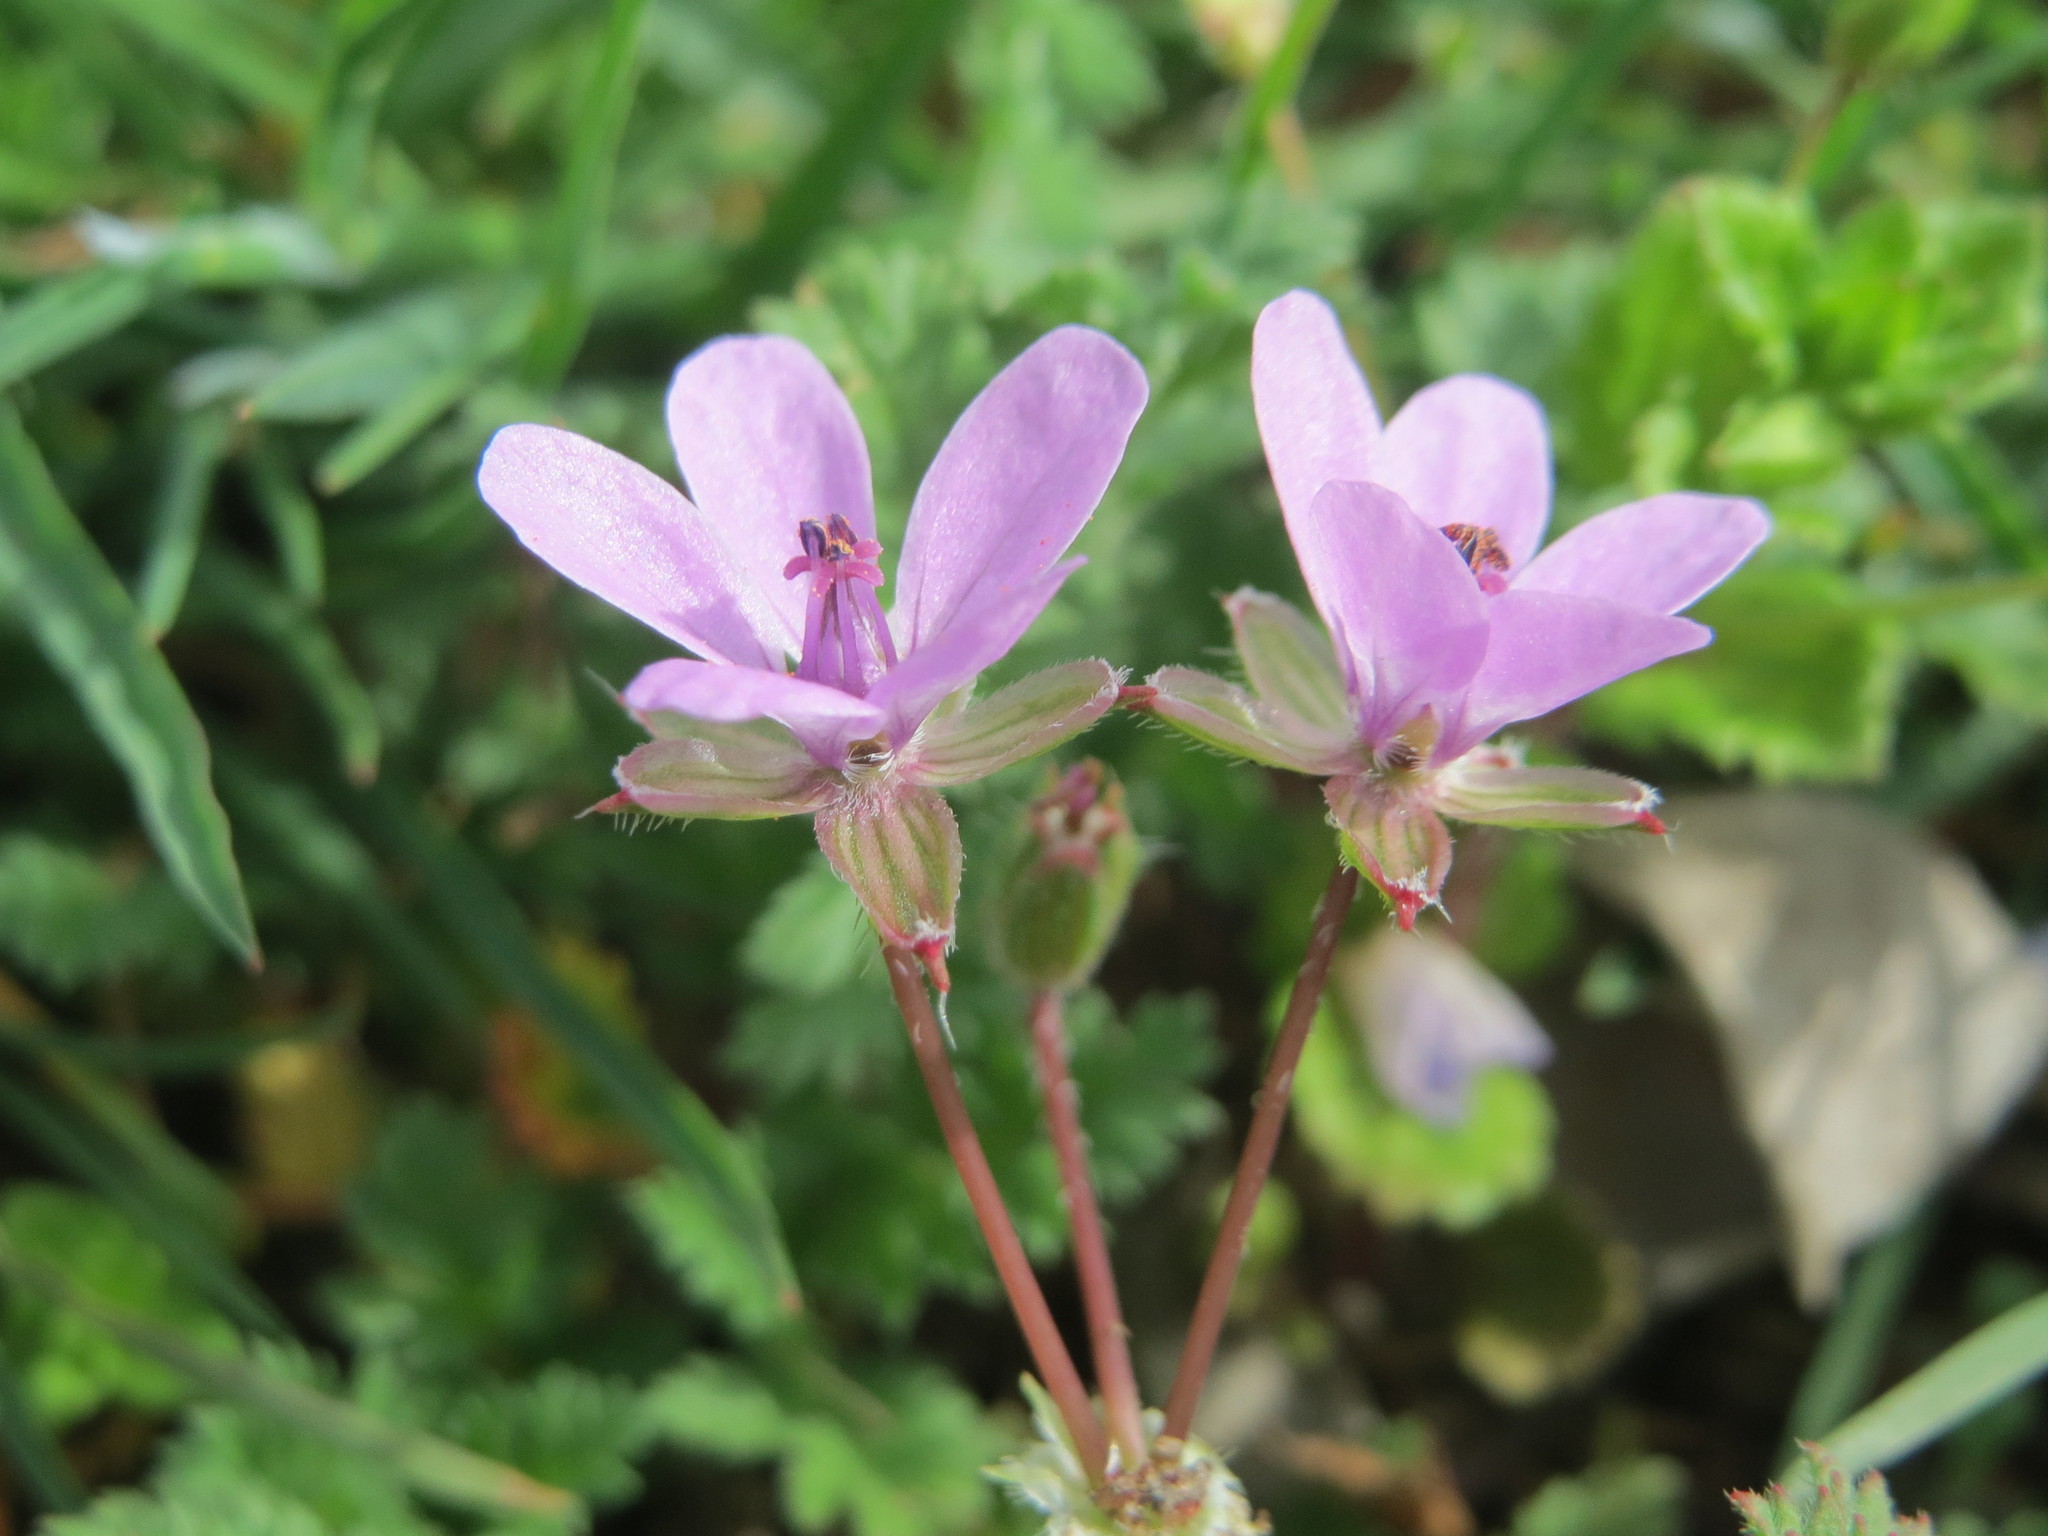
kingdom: Plantae
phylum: Tracheophyta
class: Magnoliopsida
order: Geraniales
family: Geraniaceae
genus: Erodium
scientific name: Erodium cicutarium
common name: Common stork's-bill
